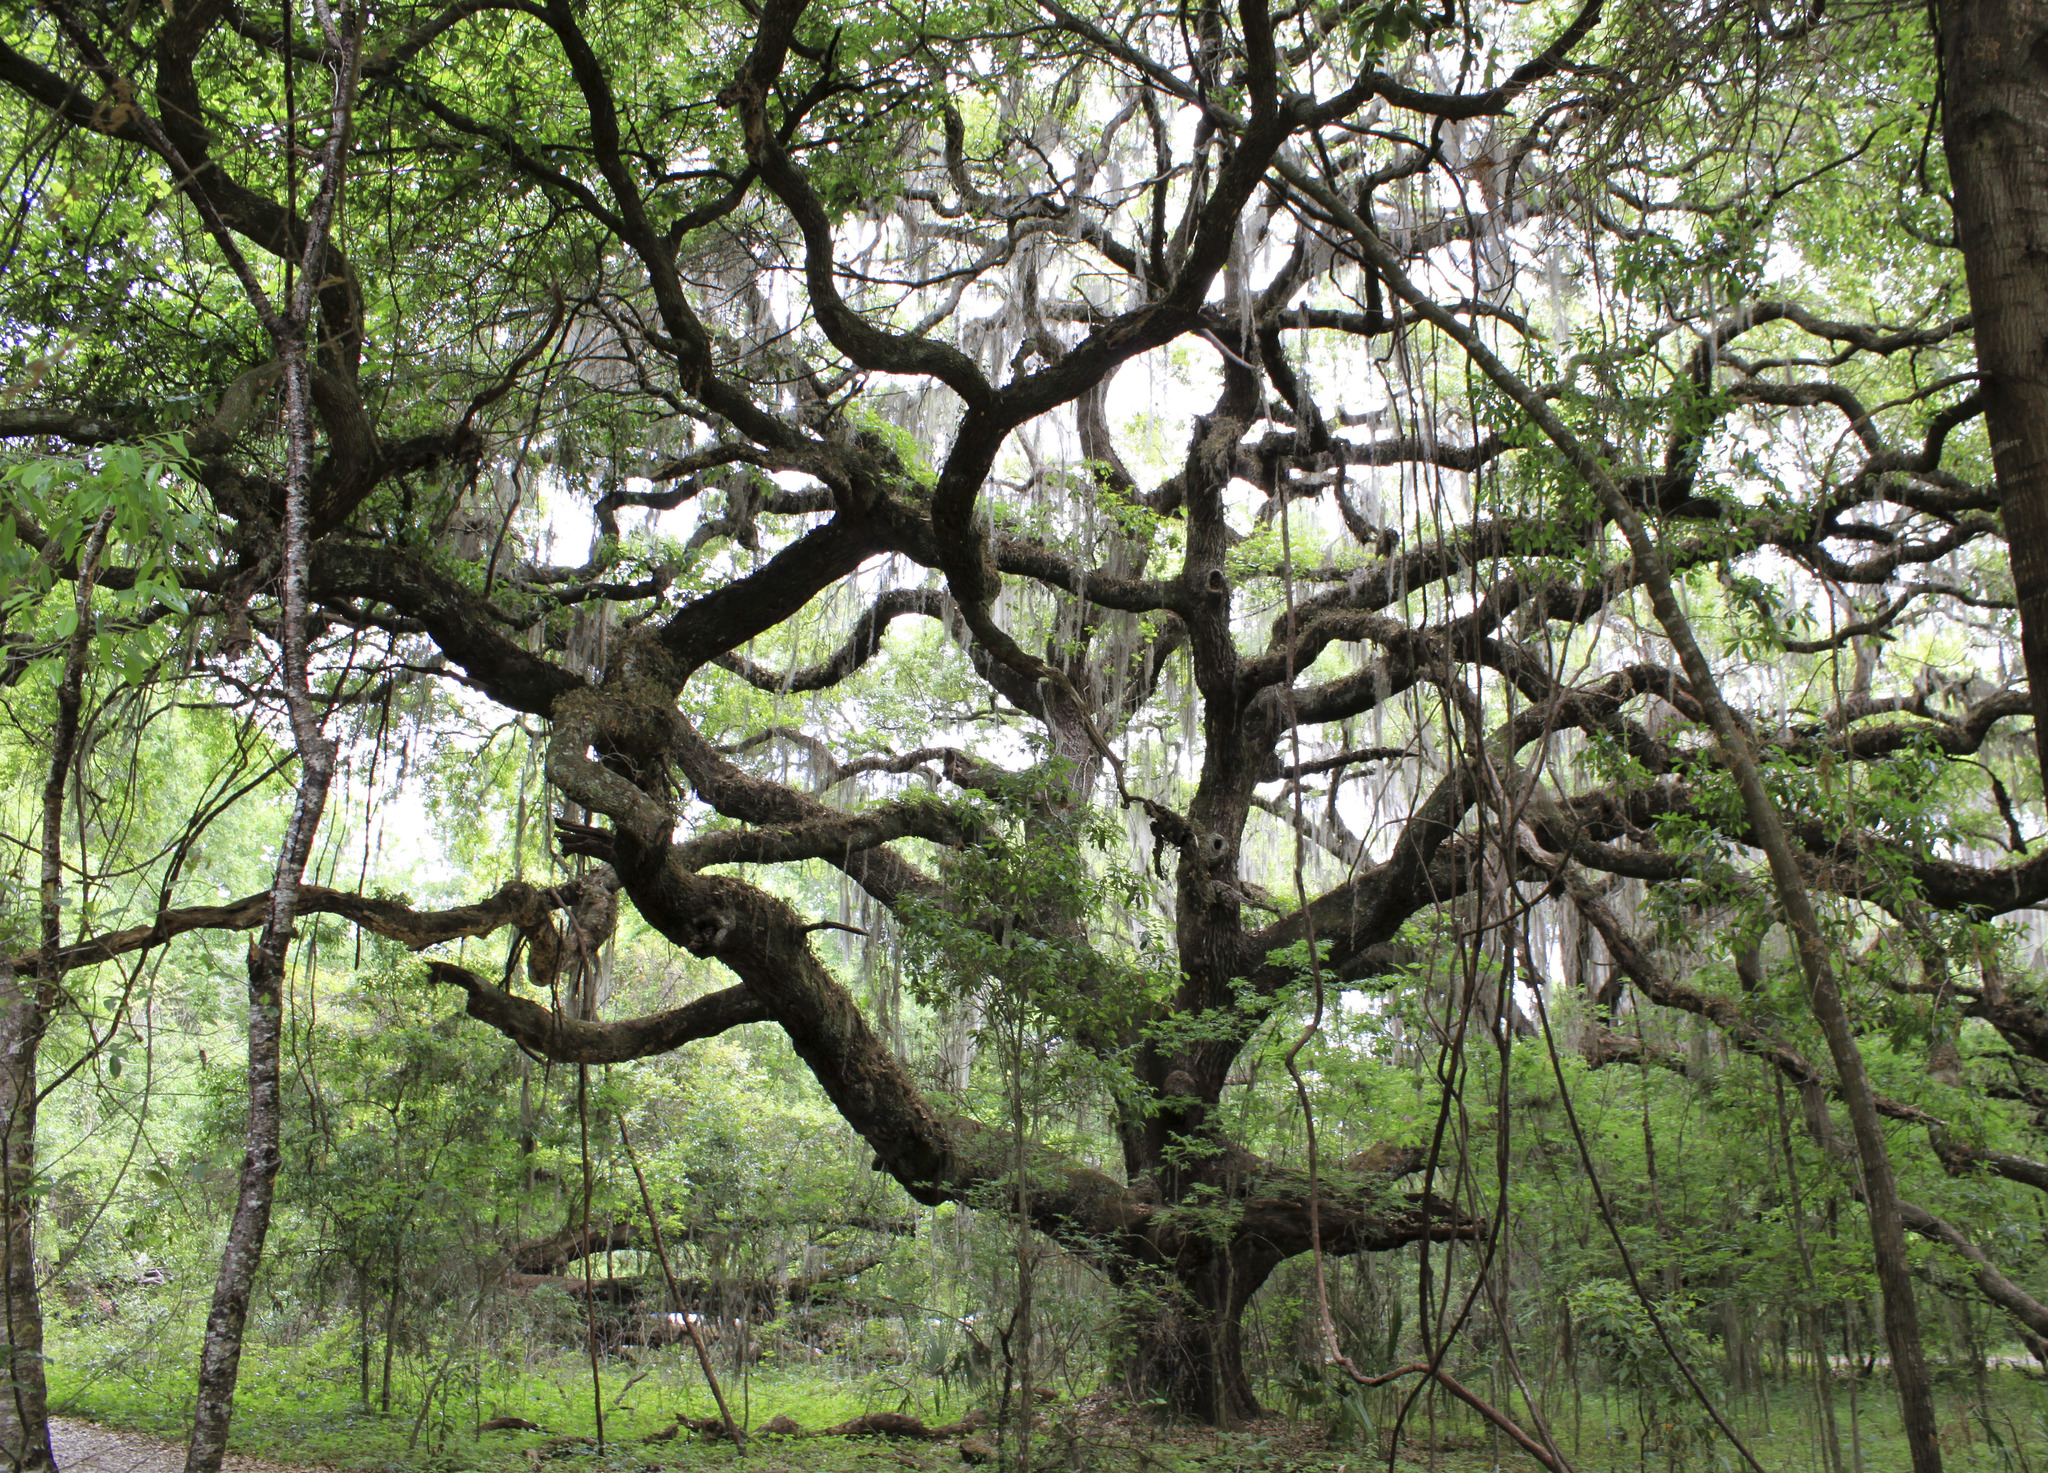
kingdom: Plantae
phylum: Tracheophyta
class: Magnoliopsida
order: Fagales
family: Fagaceae
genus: Quercus
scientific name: Quercus virginiana
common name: Southern live oak
